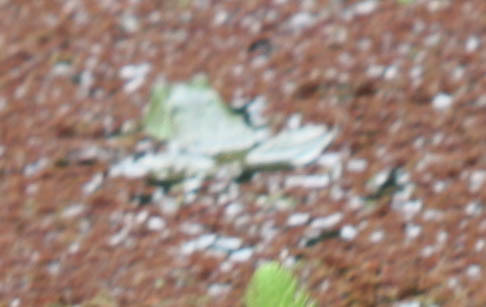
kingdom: Animalia
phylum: Chordata
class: Amphibia
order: Anura
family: Ranidae
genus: Lithobates
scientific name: Lithobates catesbeianus
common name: American bullfrog
